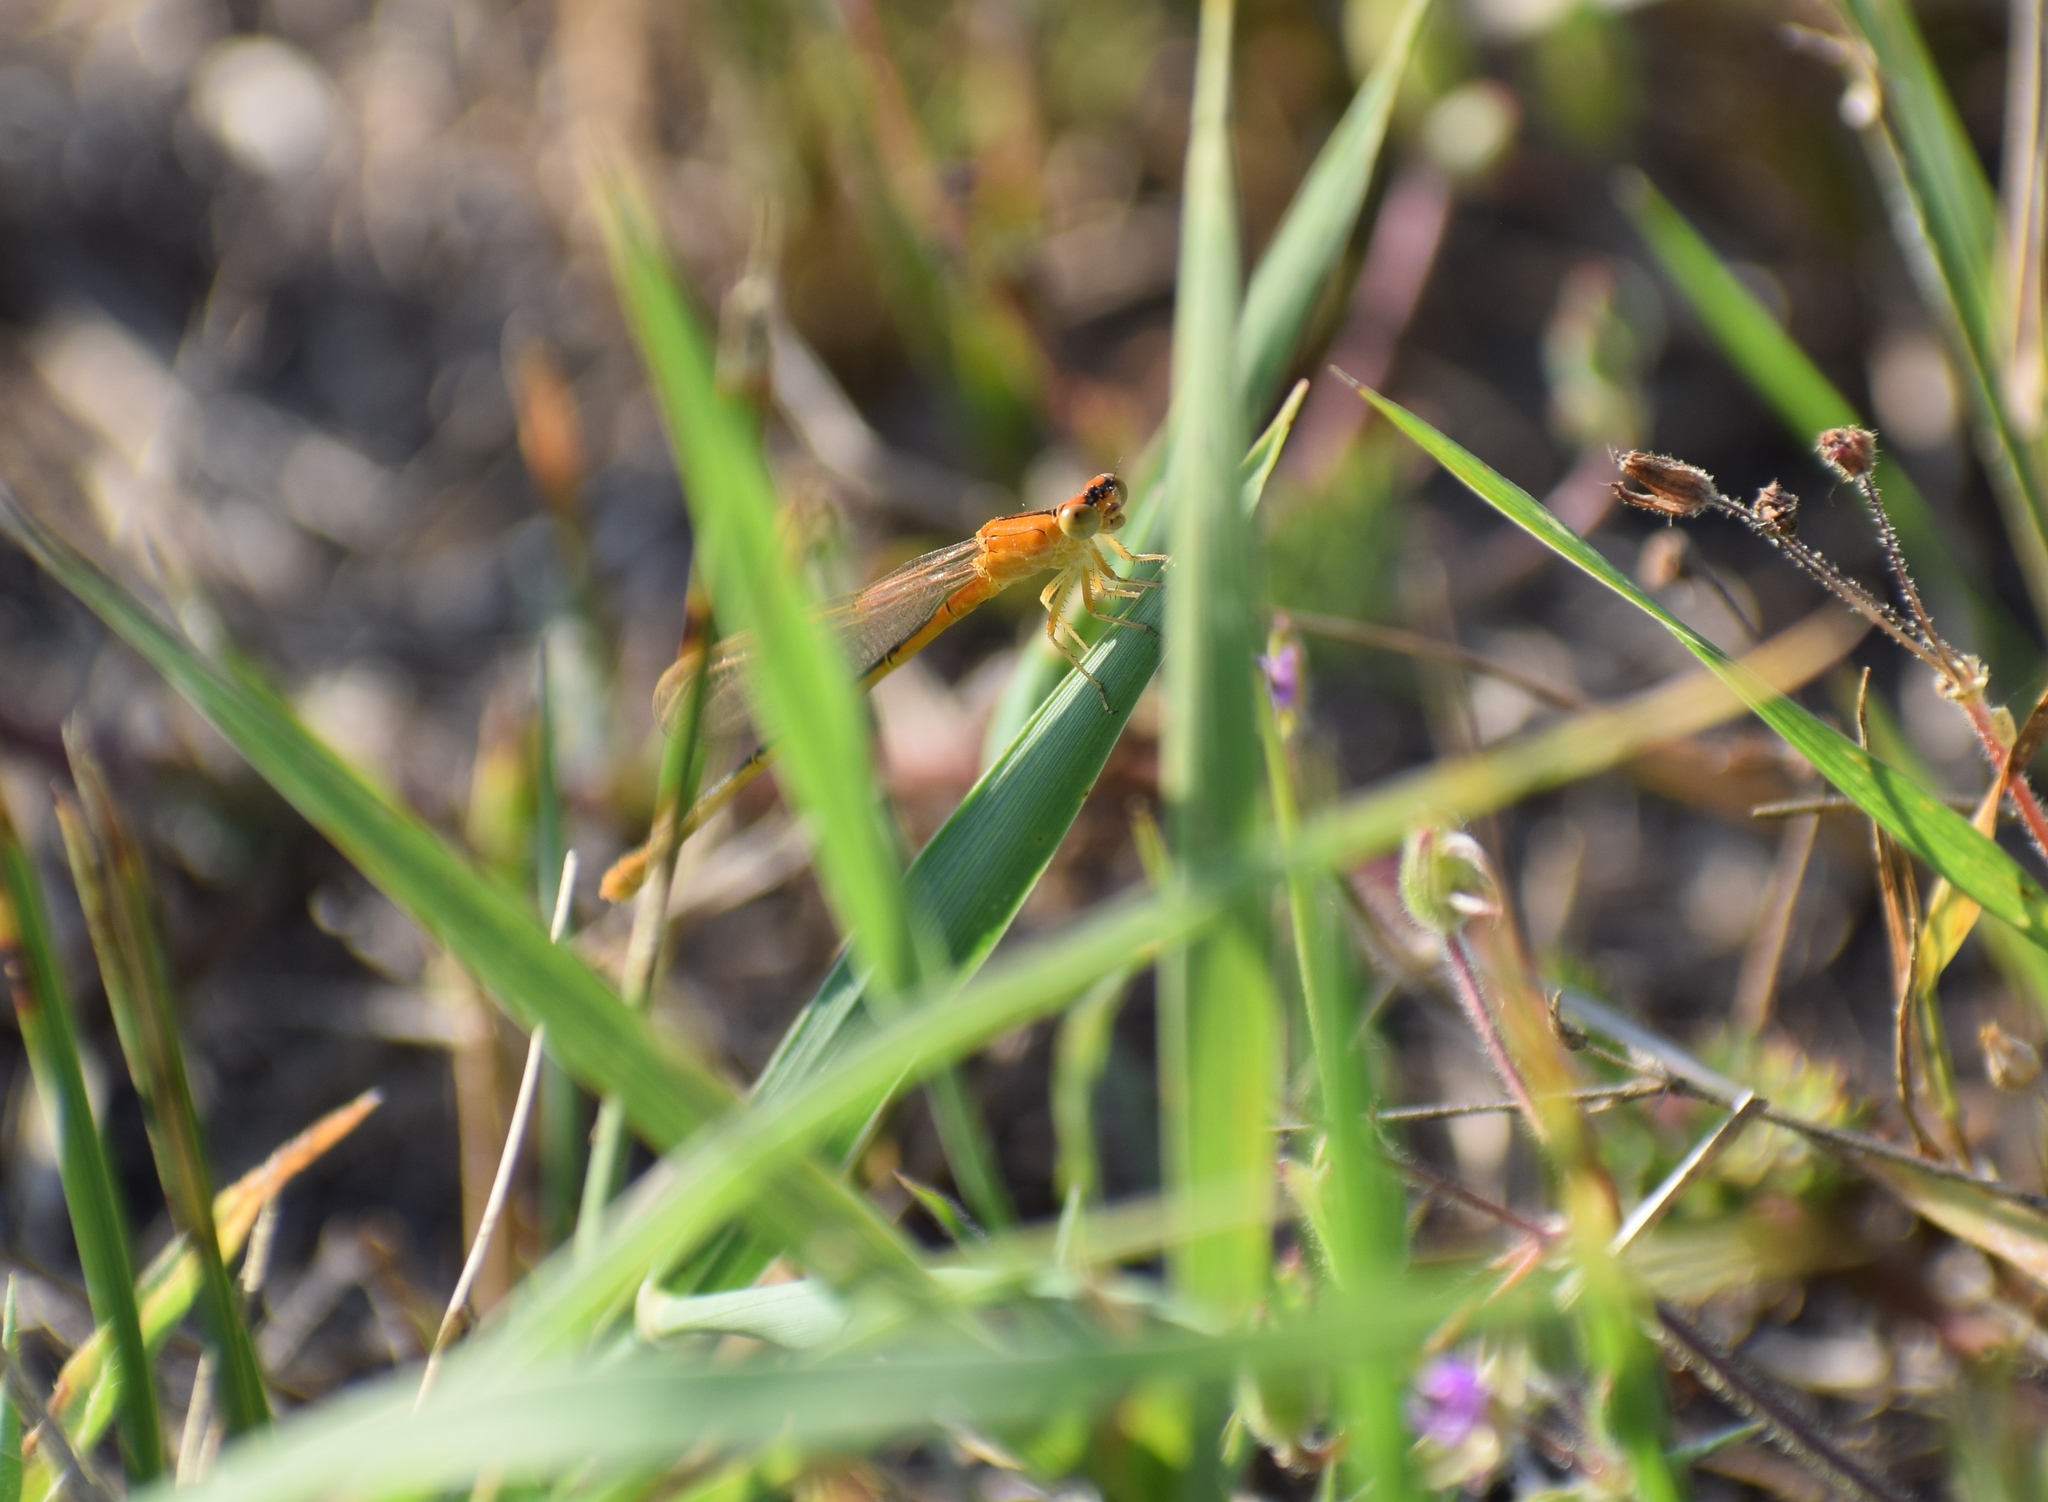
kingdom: Animalia
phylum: Arthropoda
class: Insecta
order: Odonata
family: Coenagrionidae
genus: Ischnura
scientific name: Ischnura pumilio
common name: Scarce blue-tailed damselfly
